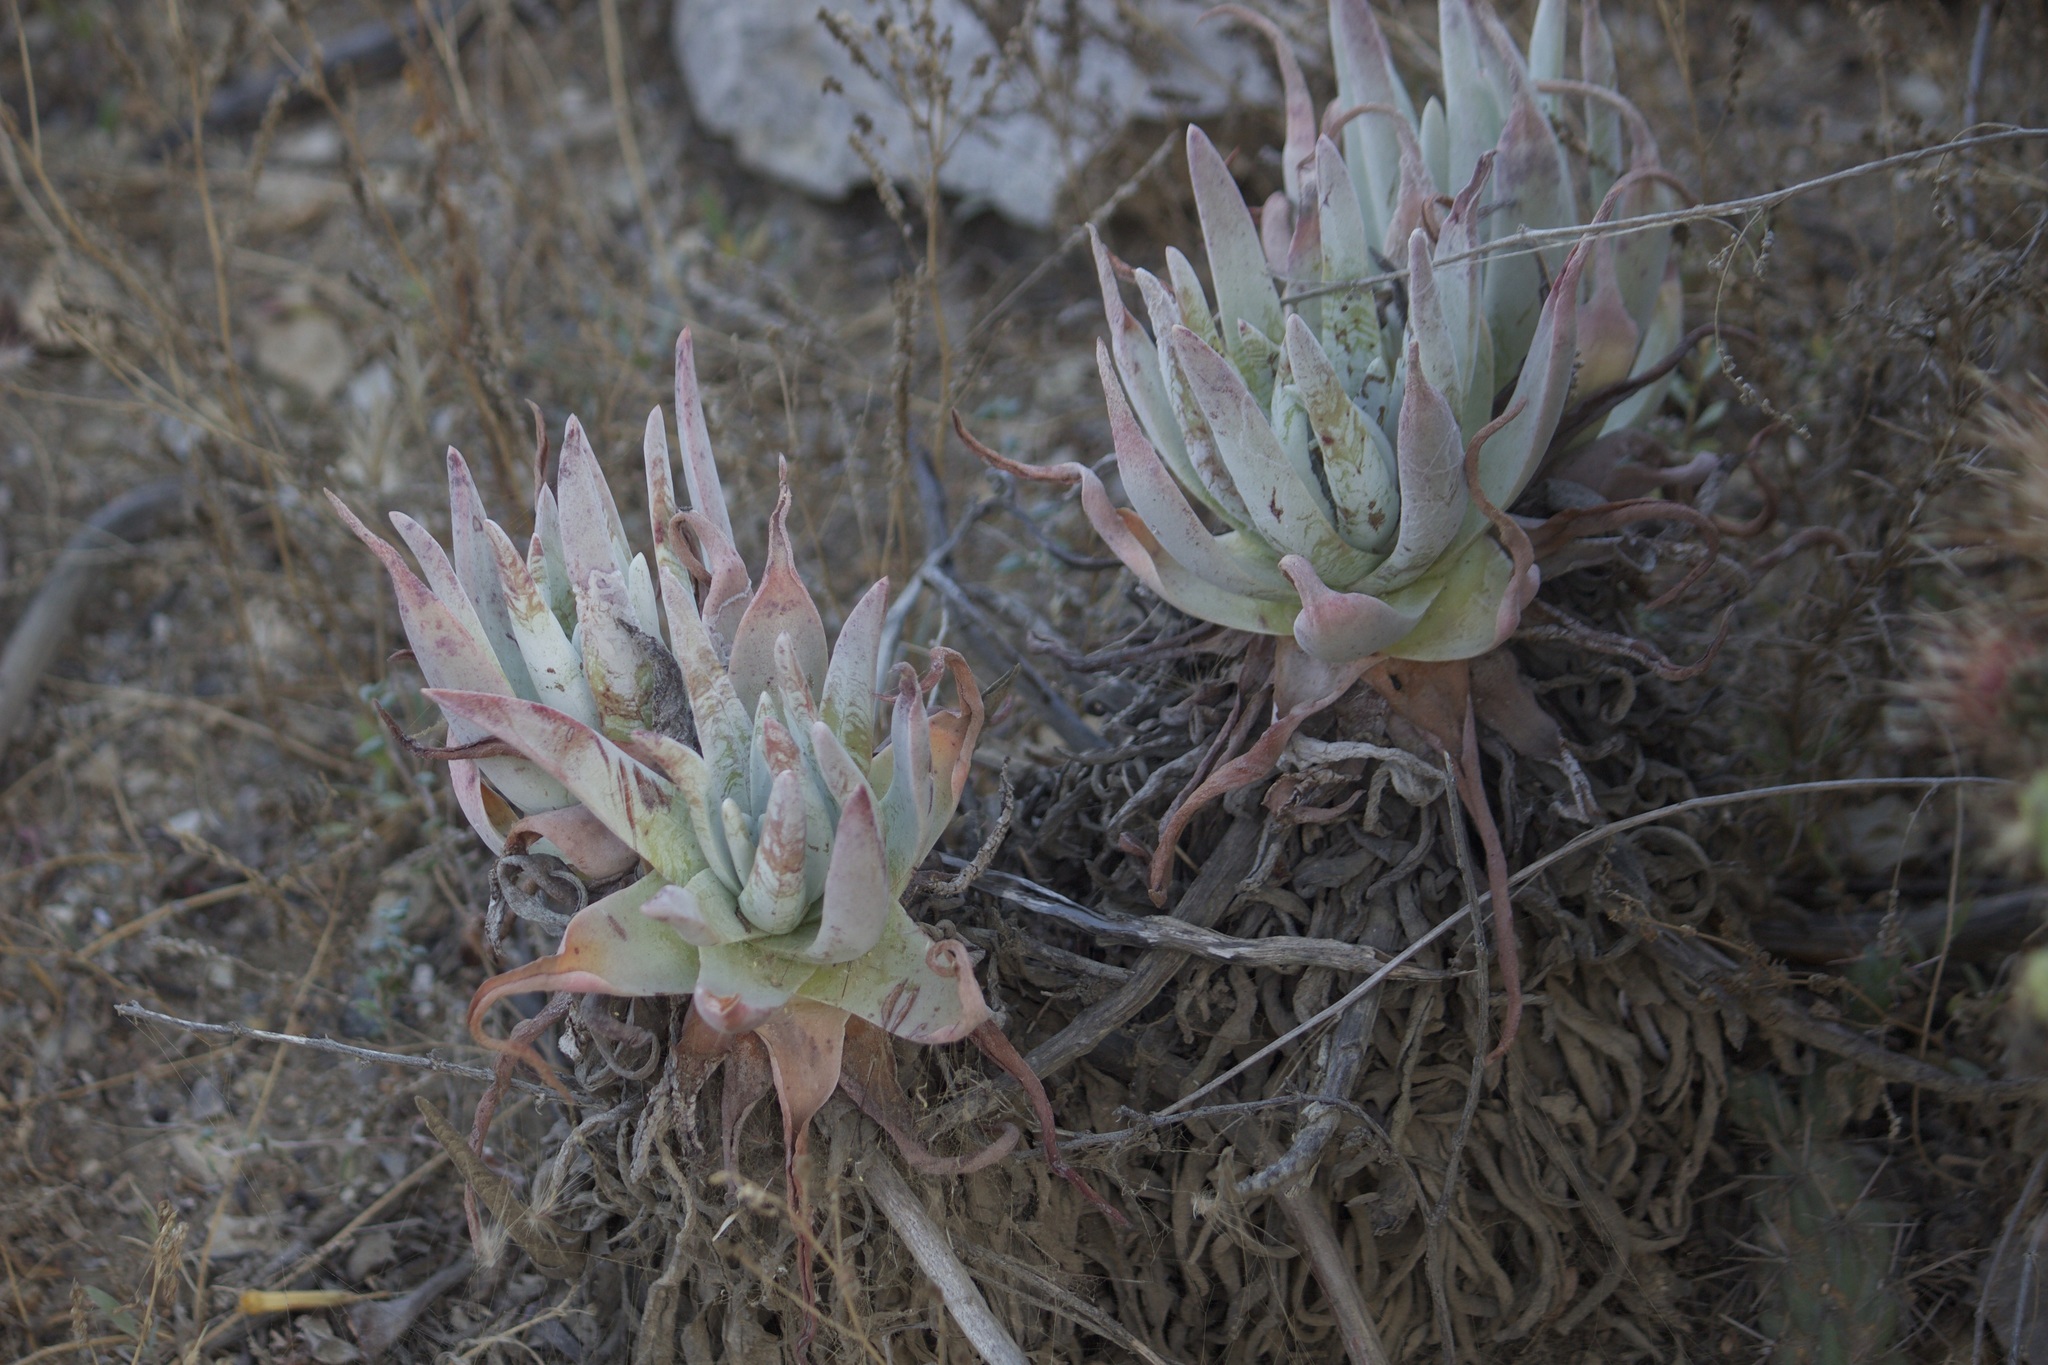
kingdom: Plantae
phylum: Tracheophyta
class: Magnoliopsida
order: Saxifragales
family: Crassulaceae
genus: Dudleya
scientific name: Dudleya virens
